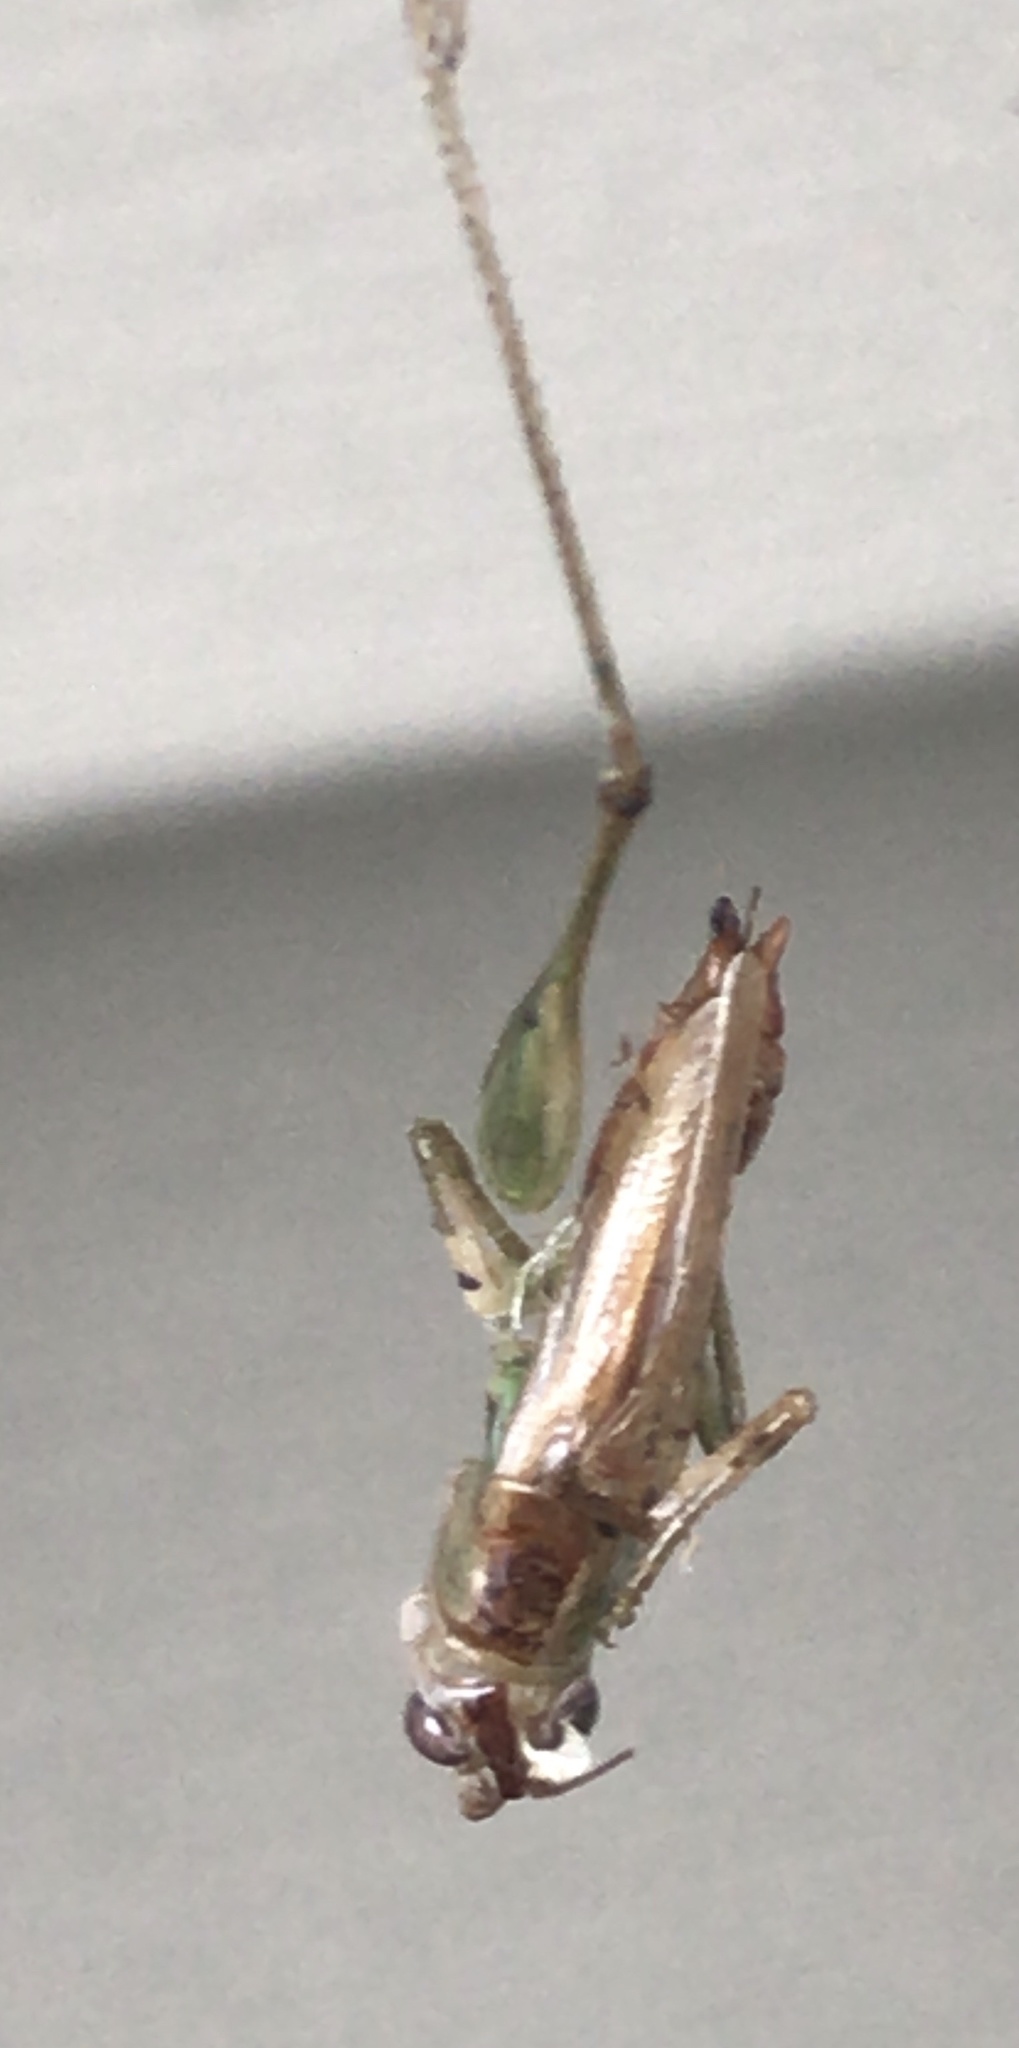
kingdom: Animalia
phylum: Arthropoda
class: Insecta
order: Orthoptera
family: Tettigoniidae
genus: Conocephalus
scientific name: Conocephalus brevipennis
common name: Short-winged meadow katydid
